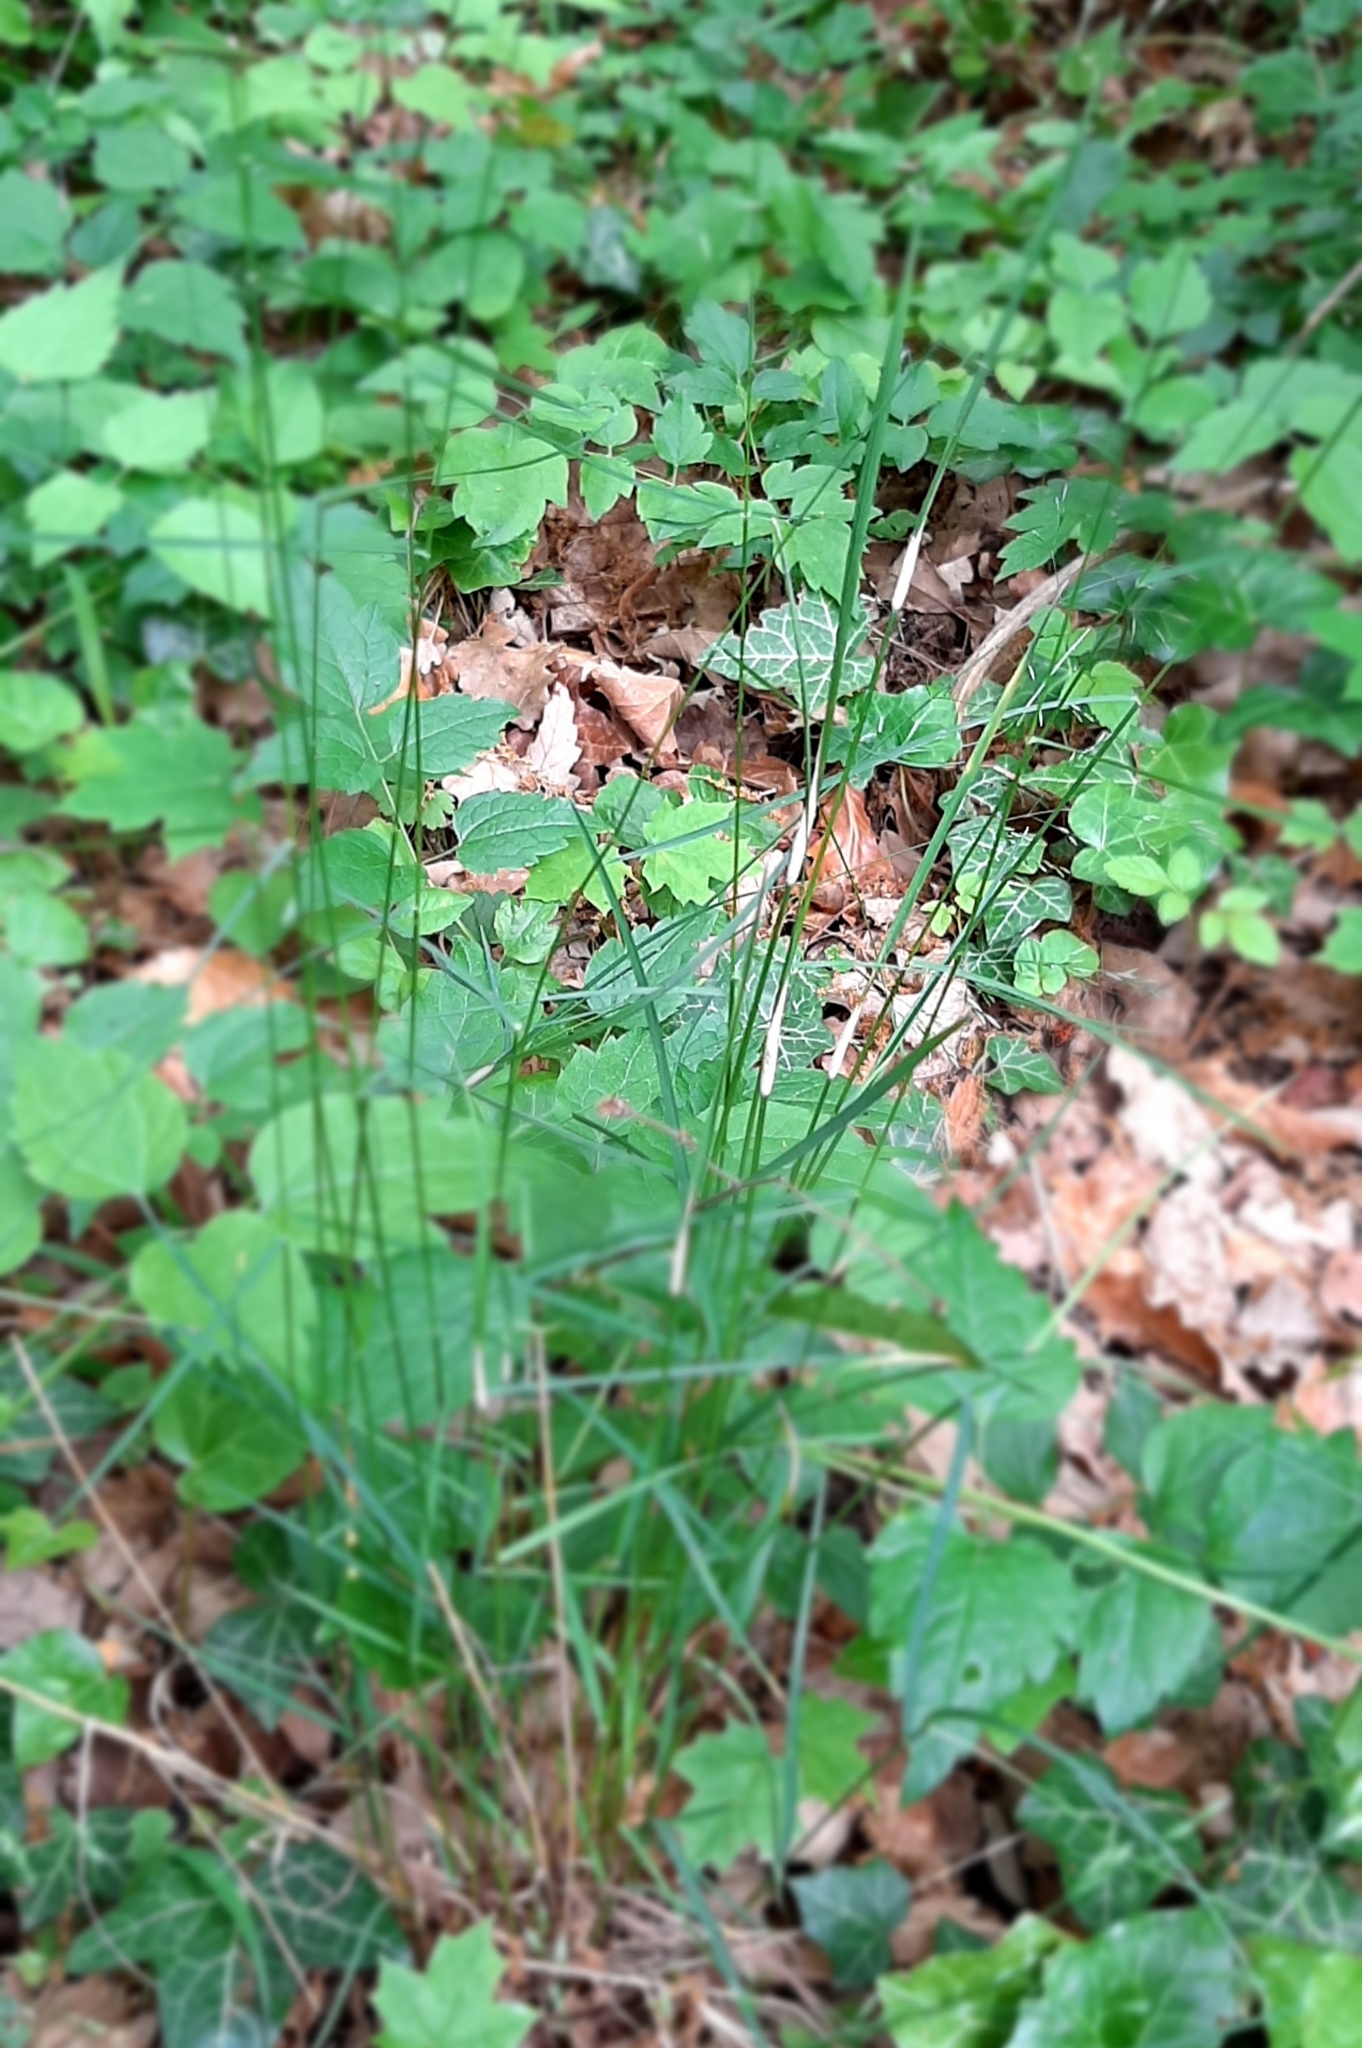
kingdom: Fungi
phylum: Ascomycota
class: Sordariomycetes
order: Hypocreales
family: Clavicipitaceae
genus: Epichloe
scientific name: Epichloe
